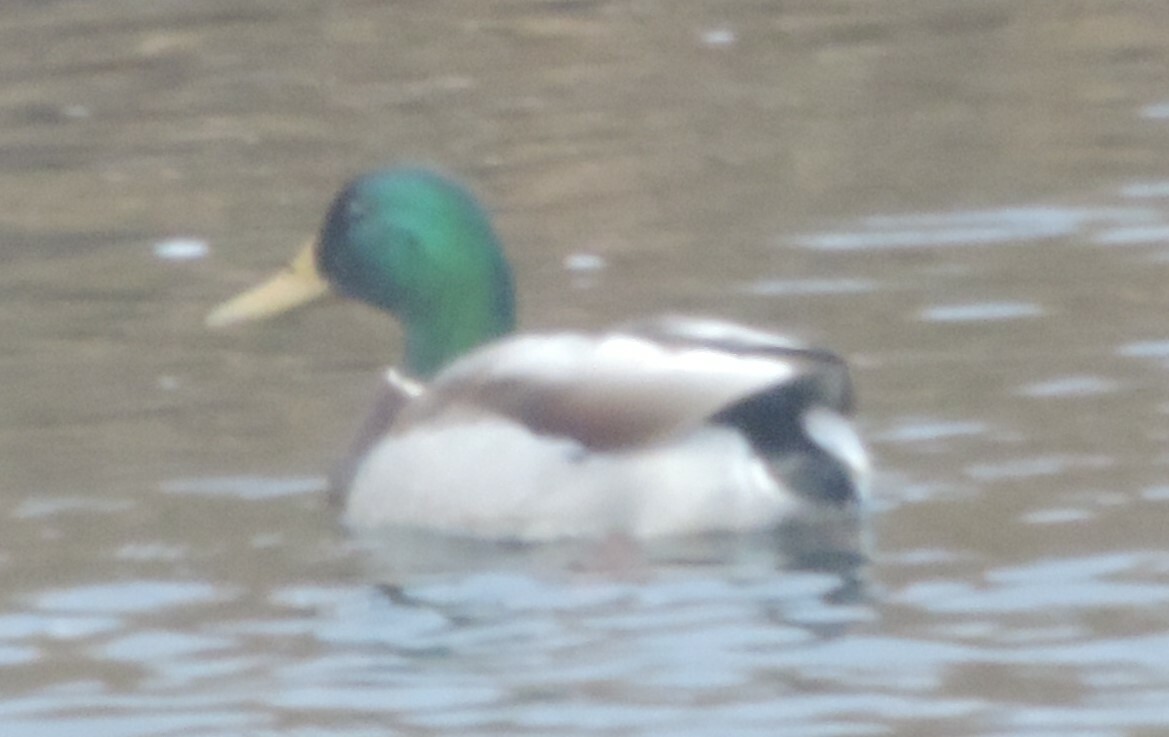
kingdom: Animalia
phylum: Chordata
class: Aves
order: Anseriformes
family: Anatidae
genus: Anas
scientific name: Anas platyrhynchos
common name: Mallard
